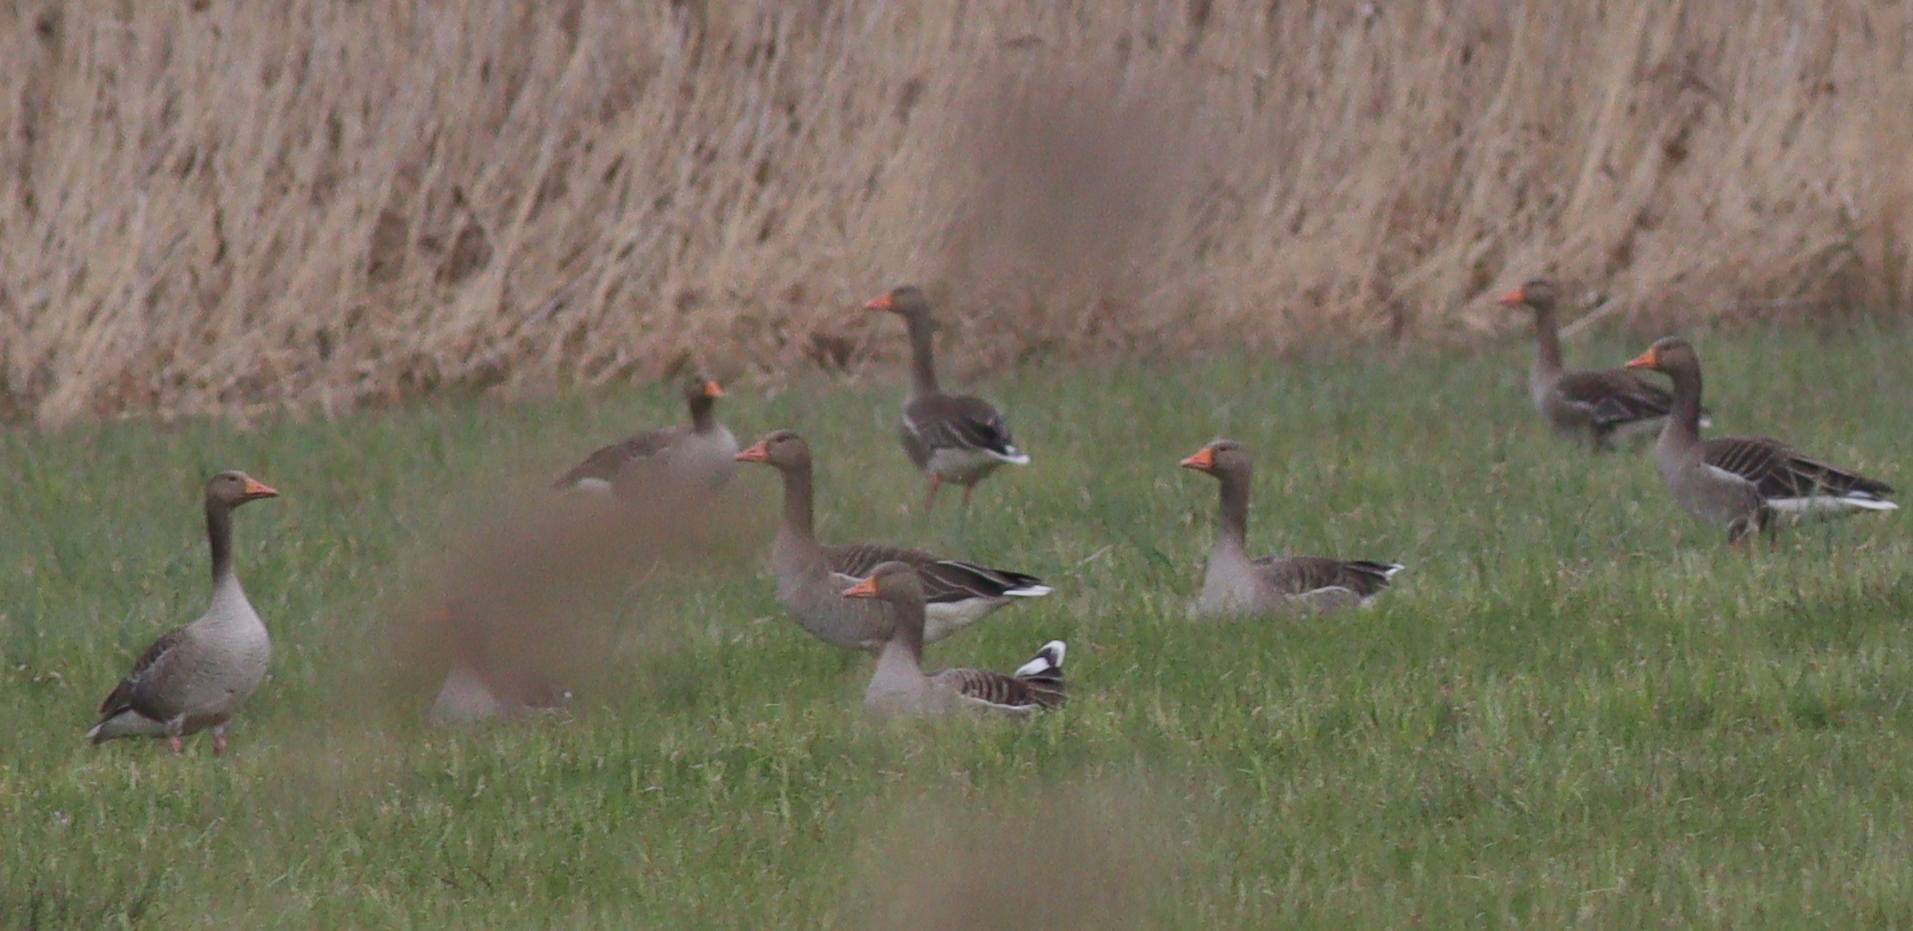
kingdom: Animalia
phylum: Chordata
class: Aves
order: Anseriformes
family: Anatidae
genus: Anser
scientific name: Anser anser
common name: Greylag goose
